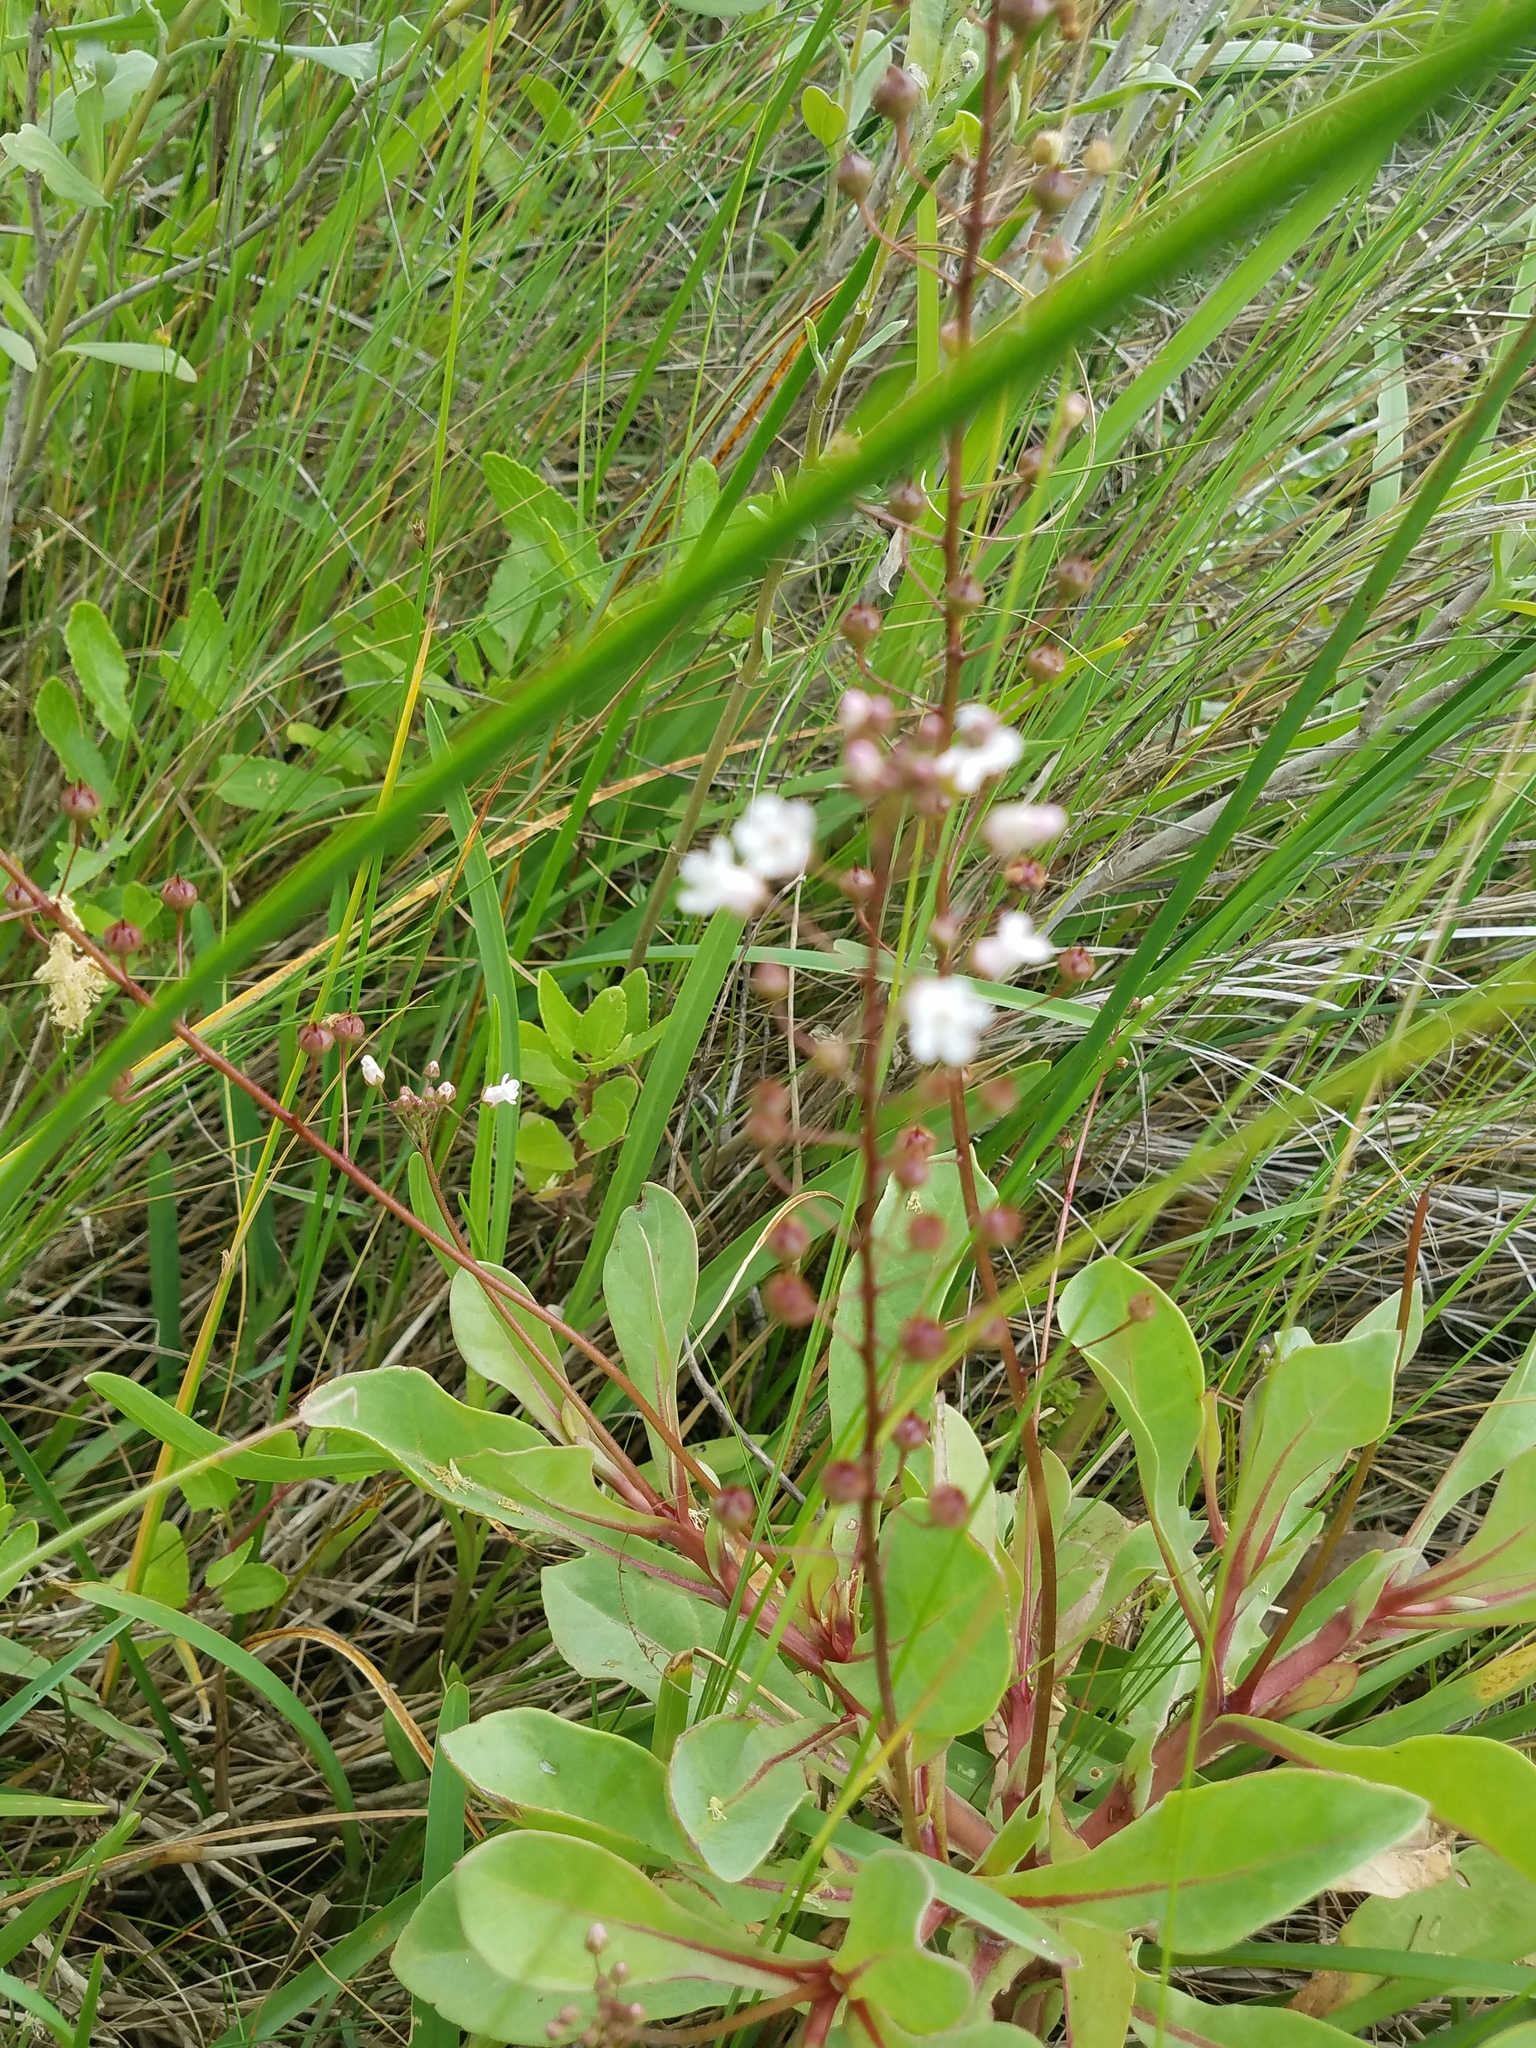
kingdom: Plantae
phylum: Tracheophyta
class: Magnoliopsida
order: Ericales
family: Primulaceae
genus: Samolus
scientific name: Samolus ebracteatus
